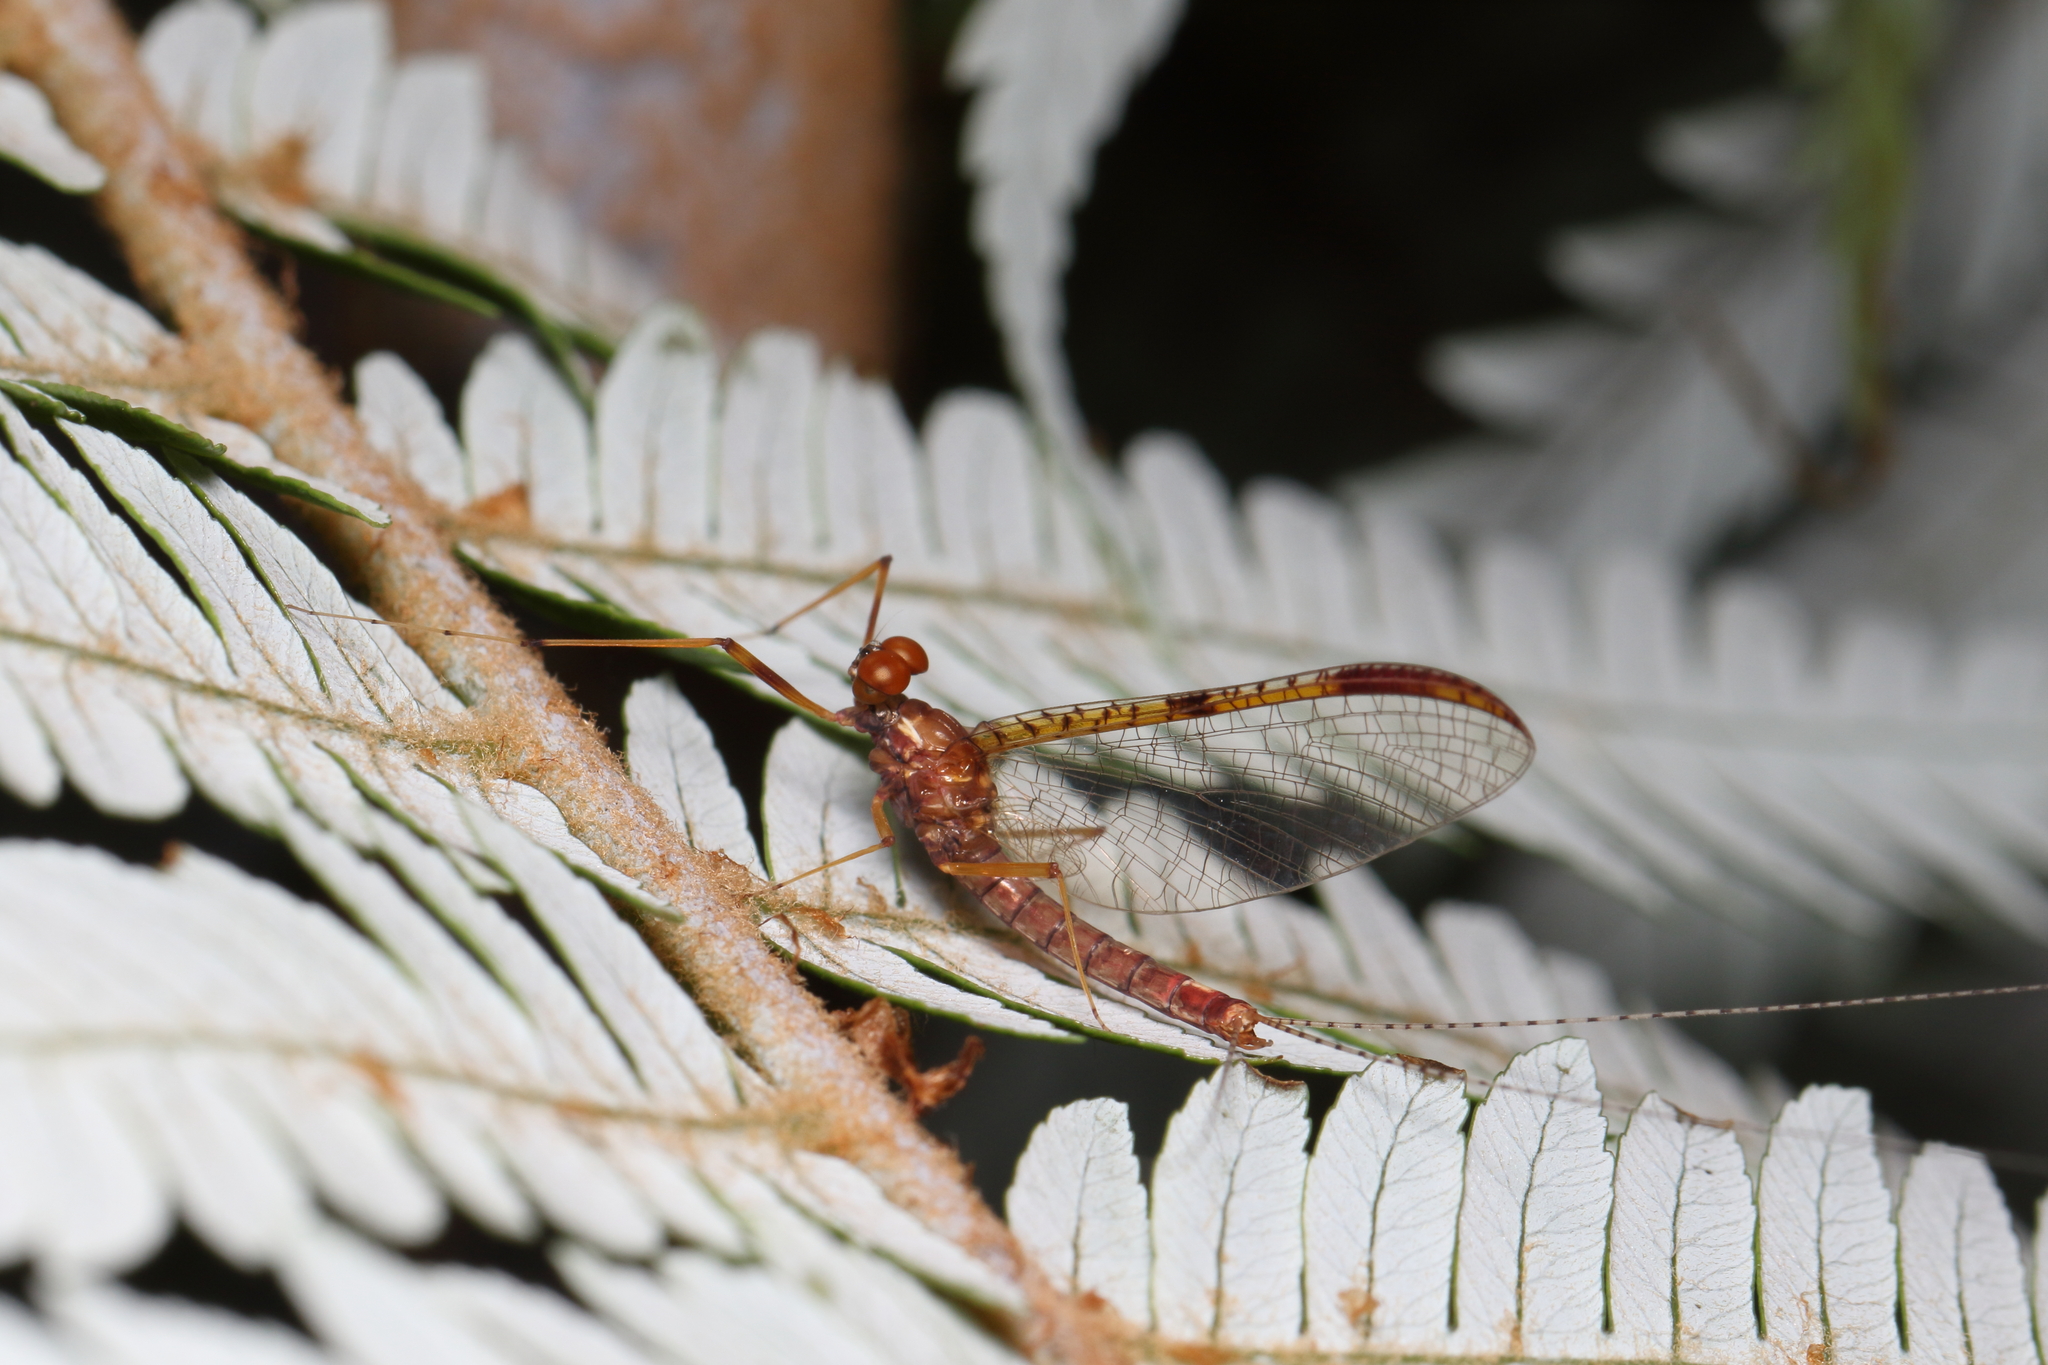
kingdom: Animalia
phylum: Arthropoda
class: Insecta
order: Ephemeroptera
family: Leptophlebiidae
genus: Zephlebia
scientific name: Zephlebia borealis
